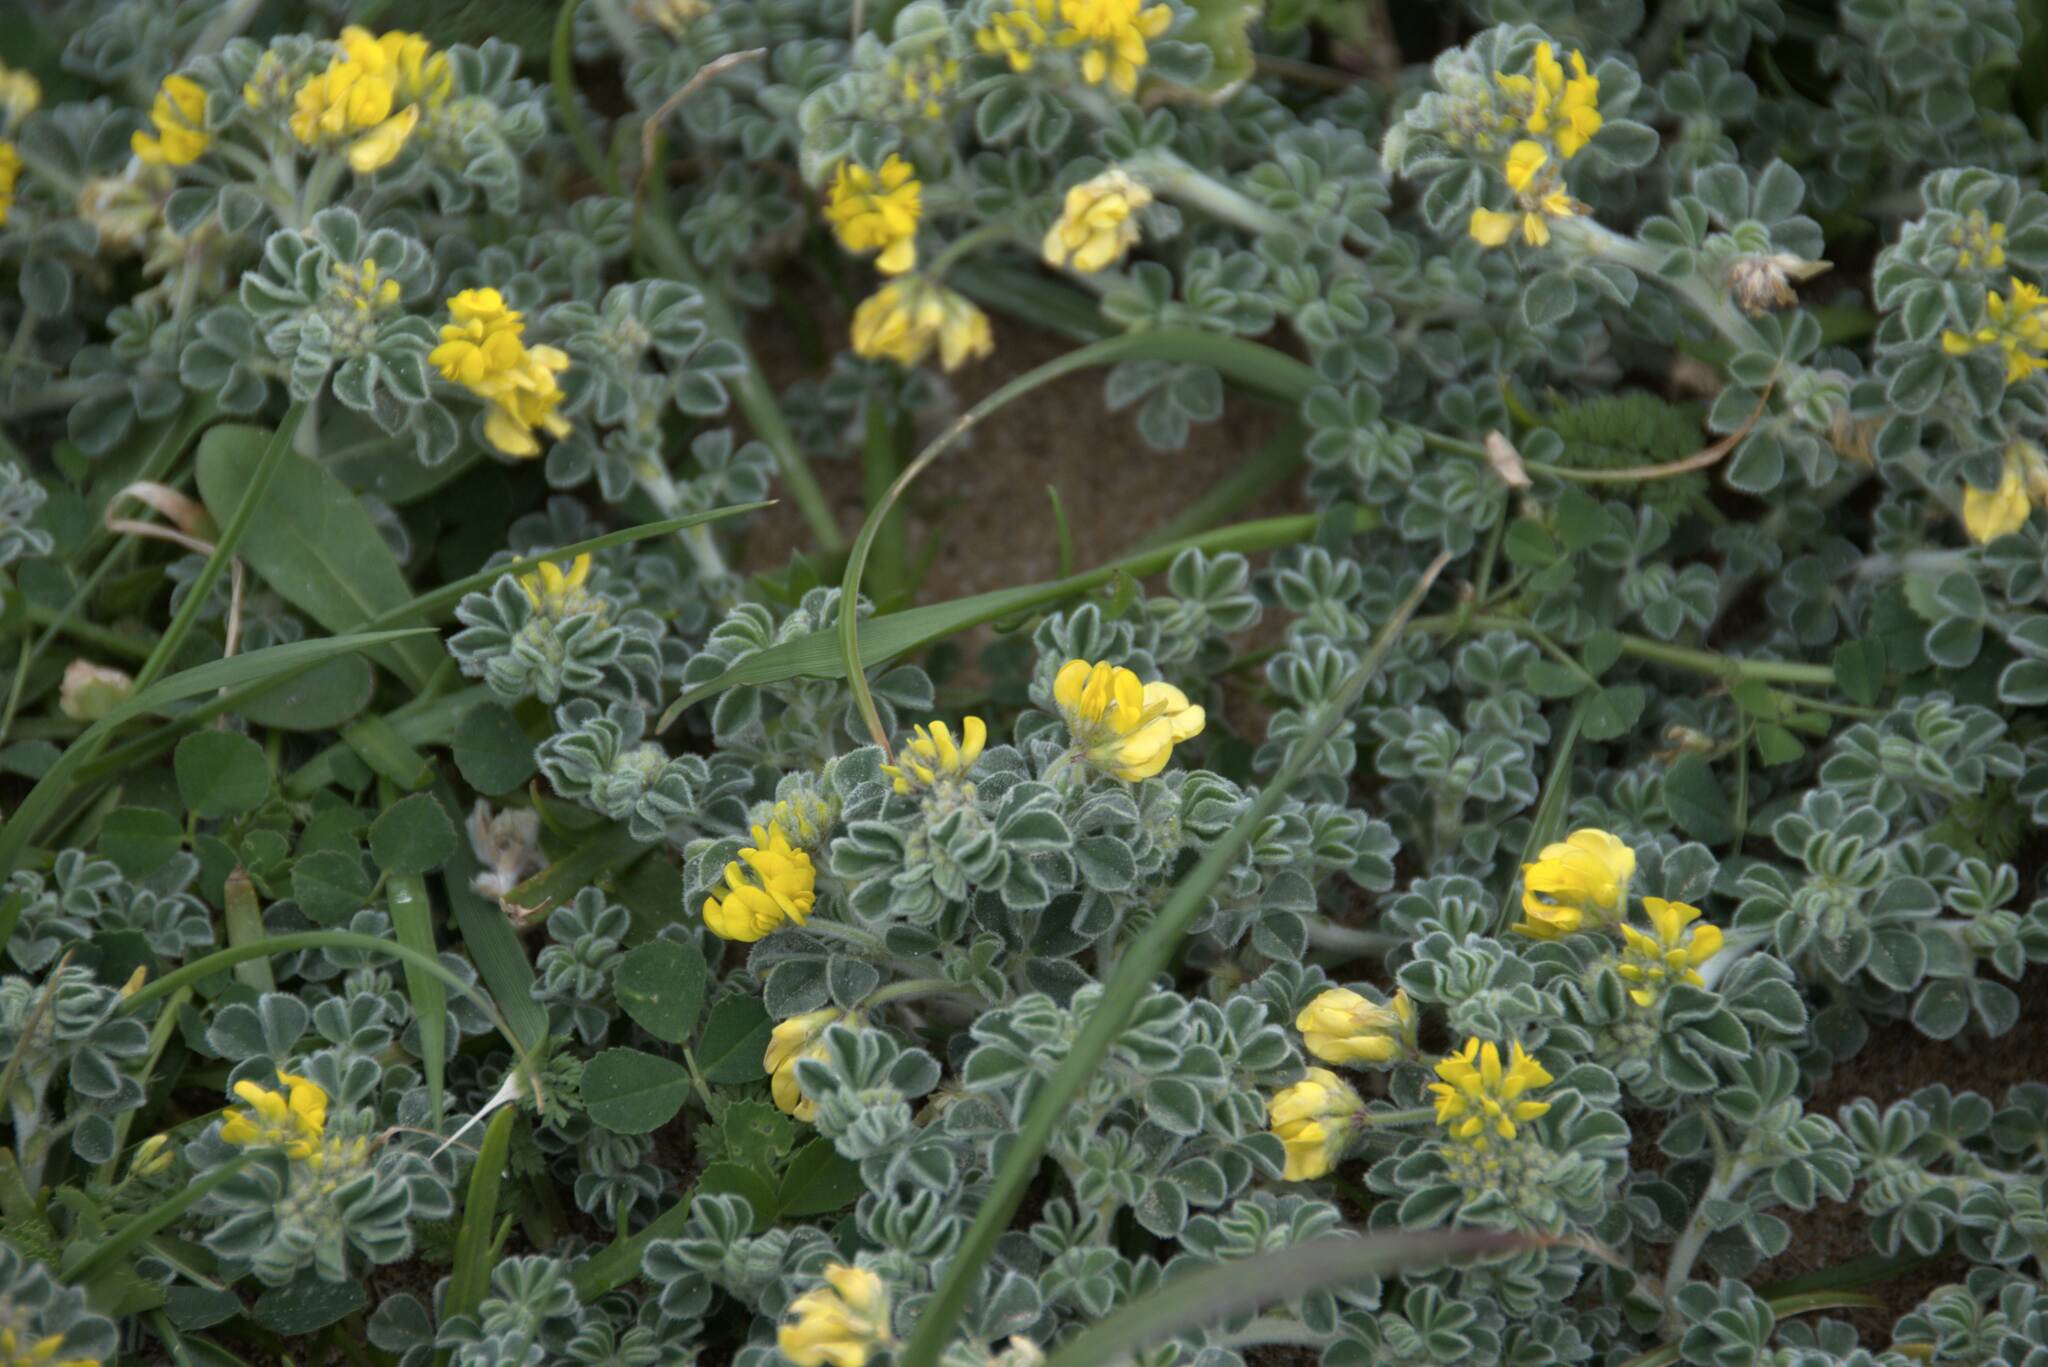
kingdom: Plantae
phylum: Tracheophyta
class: Magnoliopsida
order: Fabales
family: Fabaceae
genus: Medicago
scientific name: Medicago marina
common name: Sea medick
